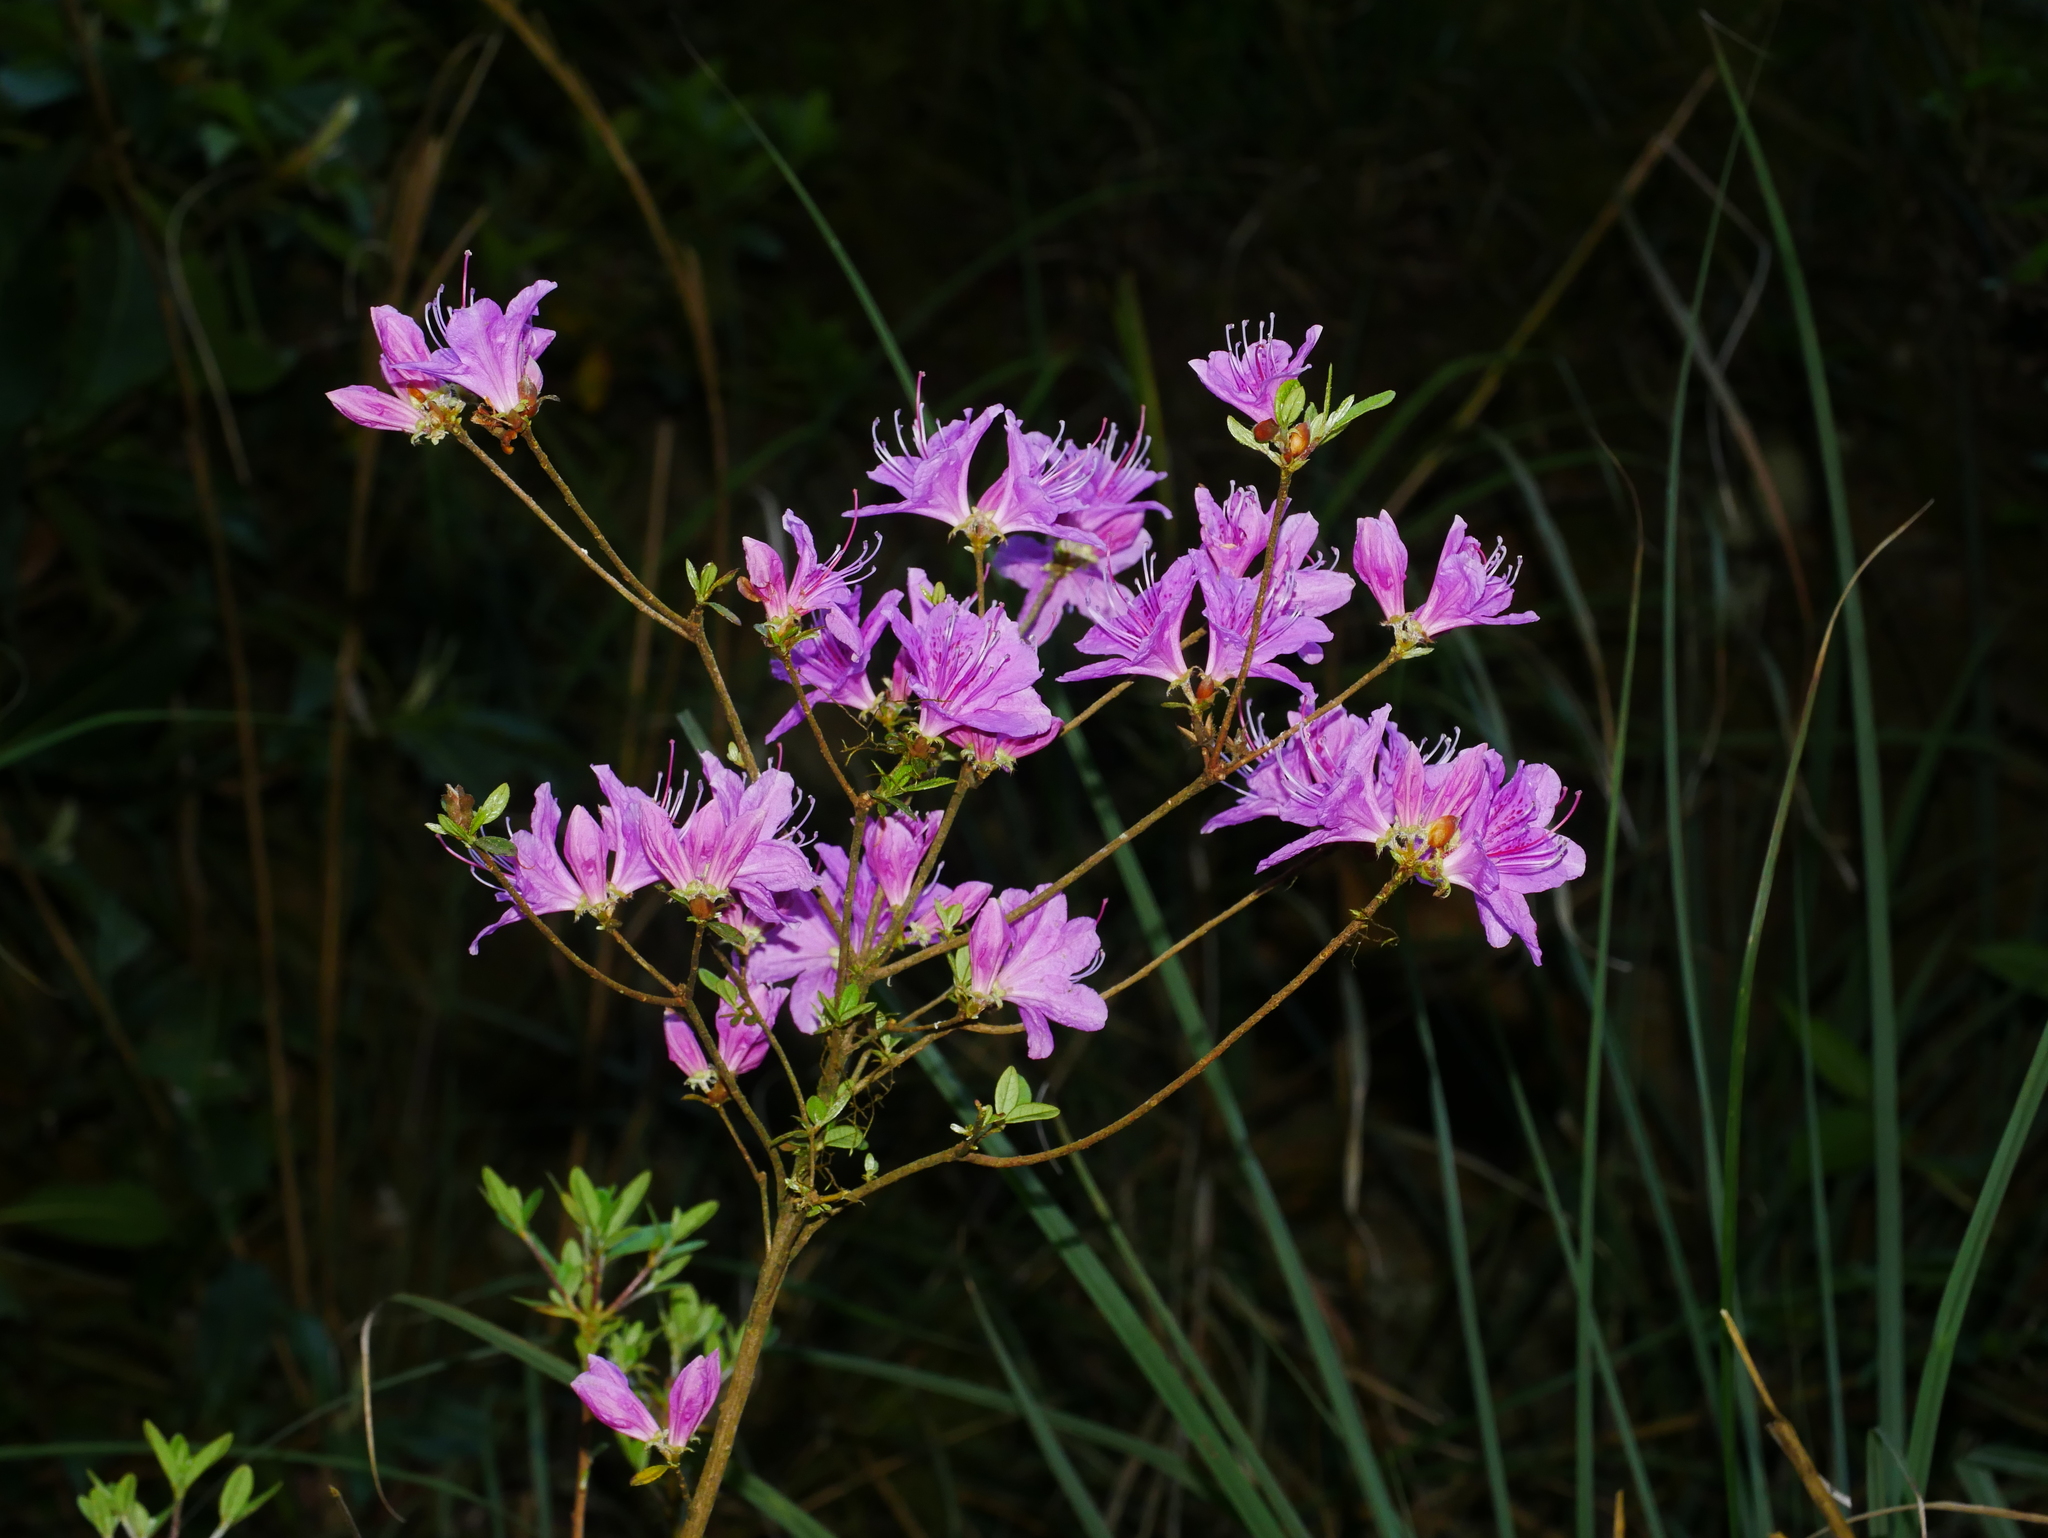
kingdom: Plantae
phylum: Tracheophyta
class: Magnoliopsida
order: Ericales
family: Ericaceae
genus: Rhododendron
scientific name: Rhododendron rubropilosum
